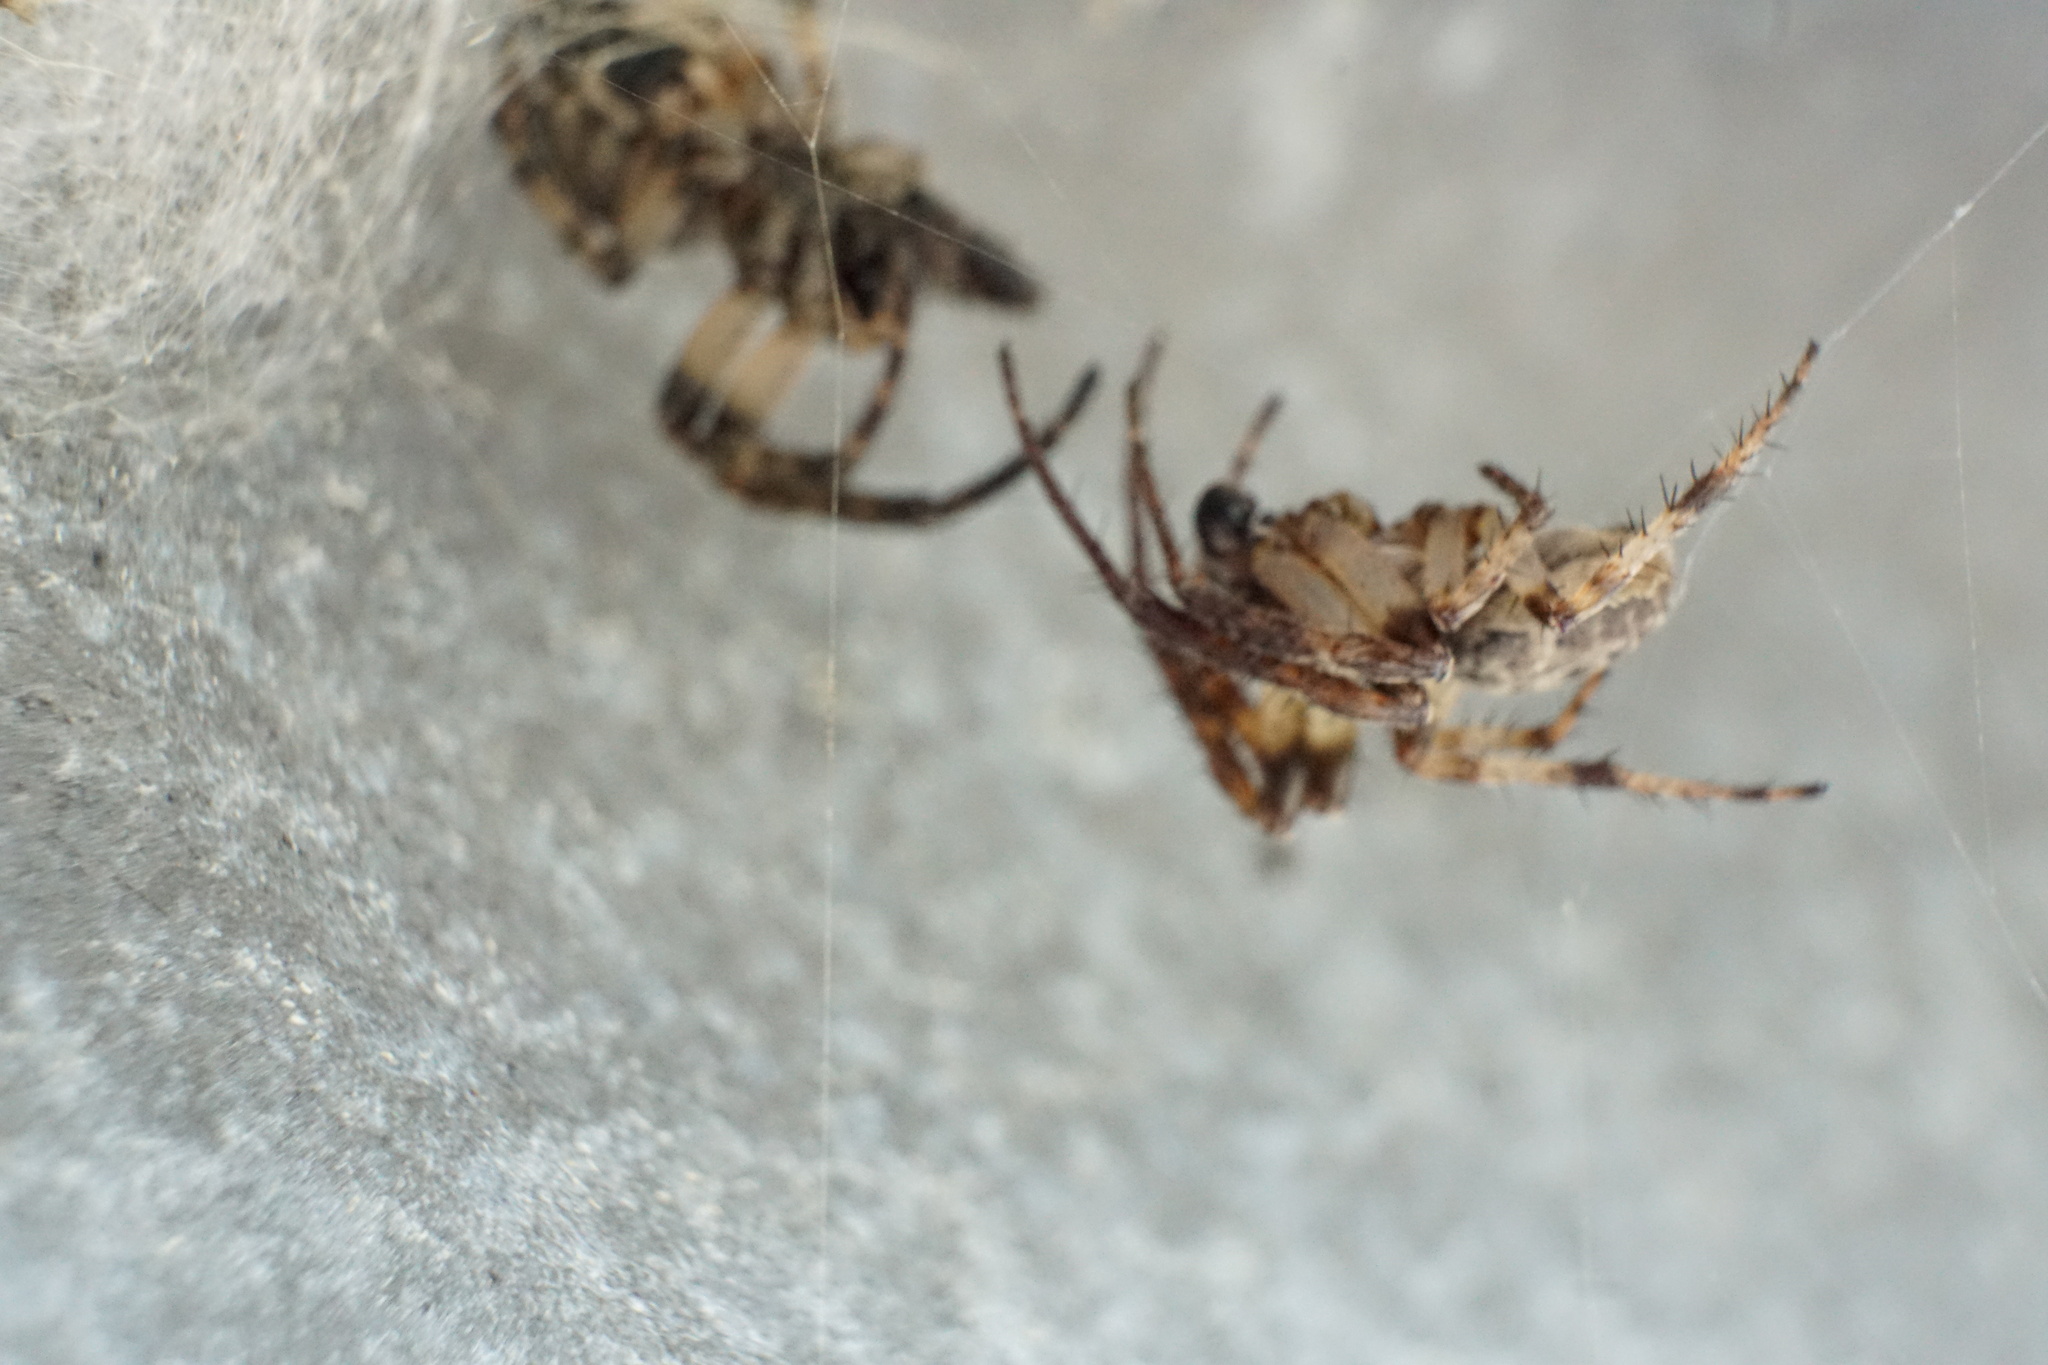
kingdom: Animalia
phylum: Arthropoda
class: Arachnida
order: Araneae
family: Araneidae
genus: Larinioides
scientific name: Larinioides cornutus
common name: Furrow orbweaver
